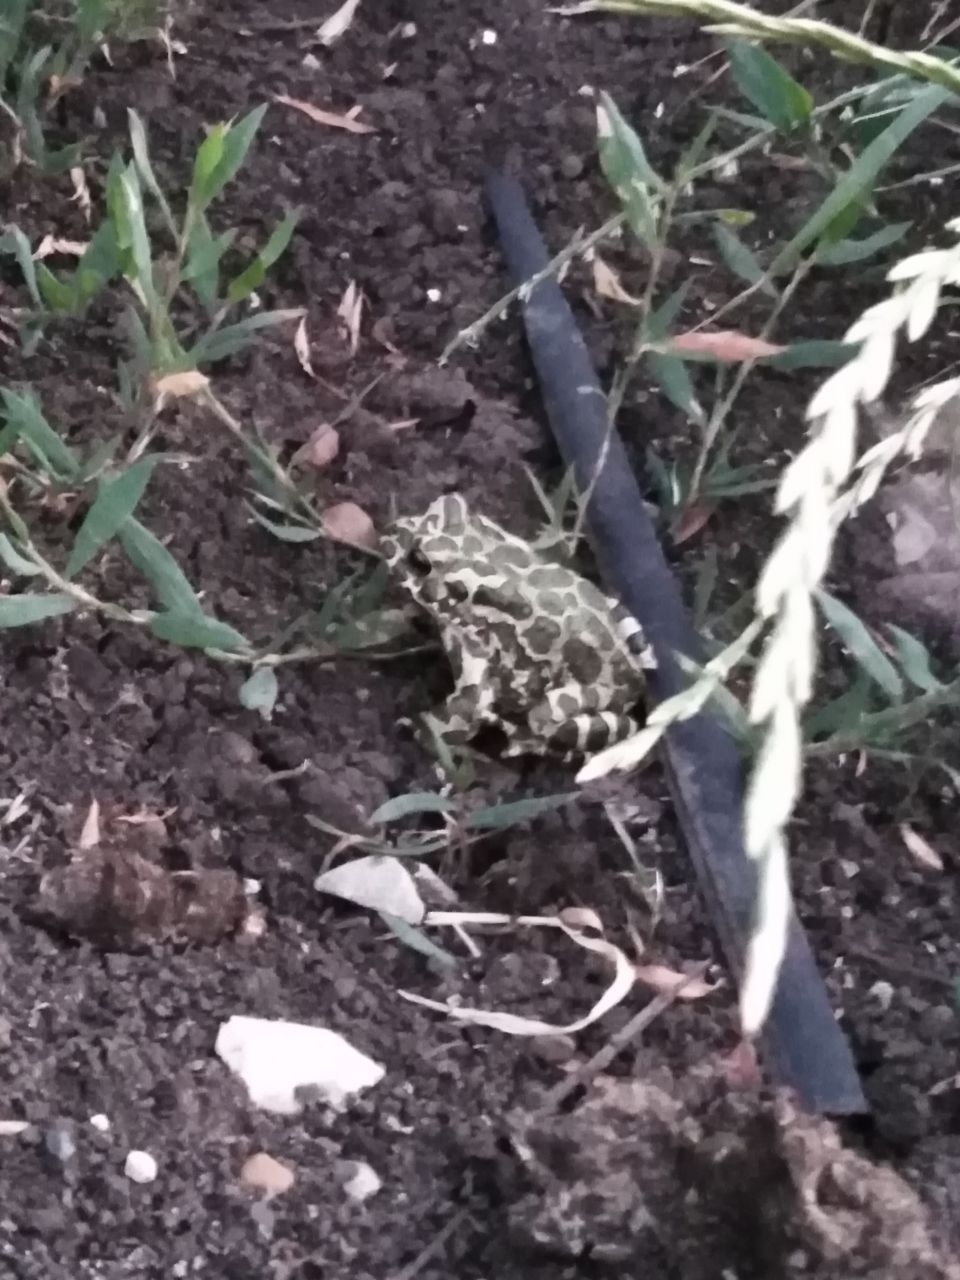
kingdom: Animalia
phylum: Chordata
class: Amphibia
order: Anura
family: Bufonidae
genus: Bufotes
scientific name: Bufotes viridis
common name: European green toad
